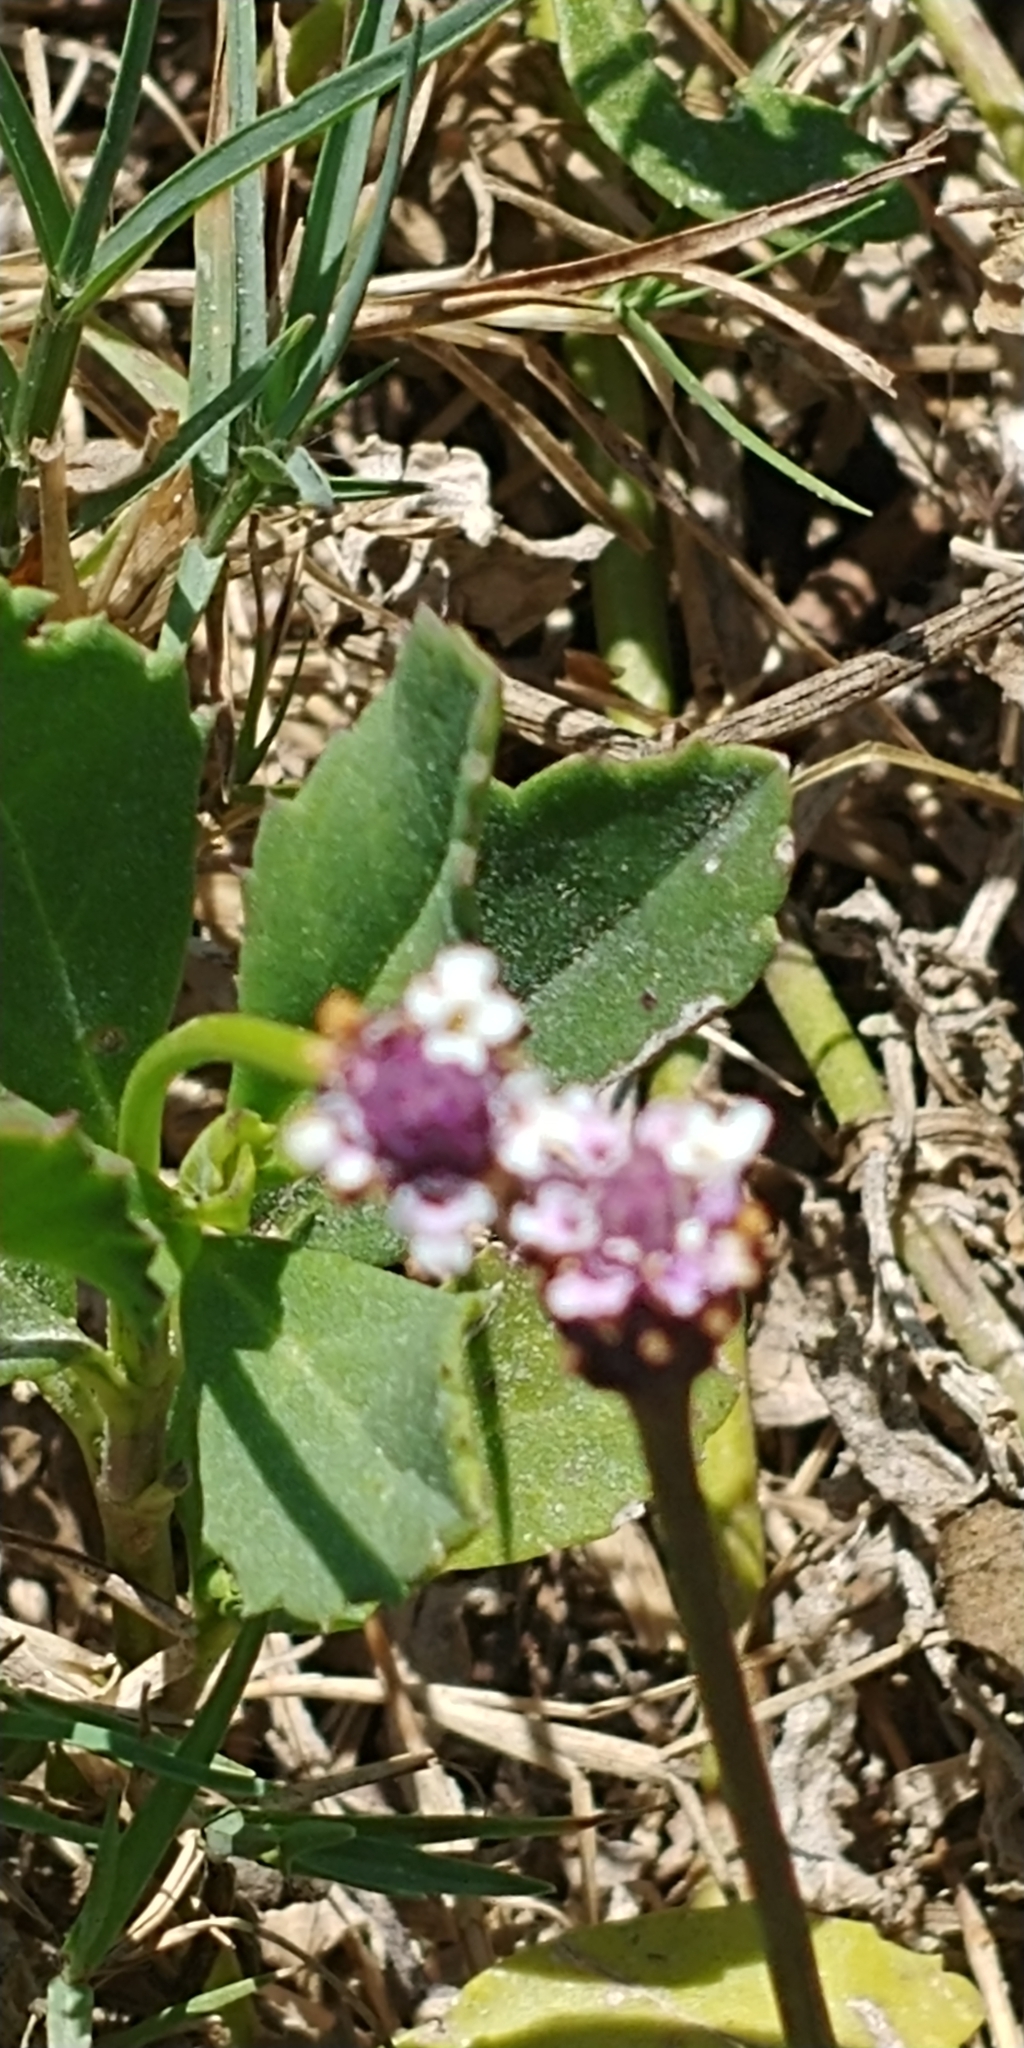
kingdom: Plantae
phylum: Tracheophyta
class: Magnoliopsida
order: Lamiales
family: Verbenaceae
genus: Phyla
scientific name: Phyla nodiflora
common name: Frogfruit
